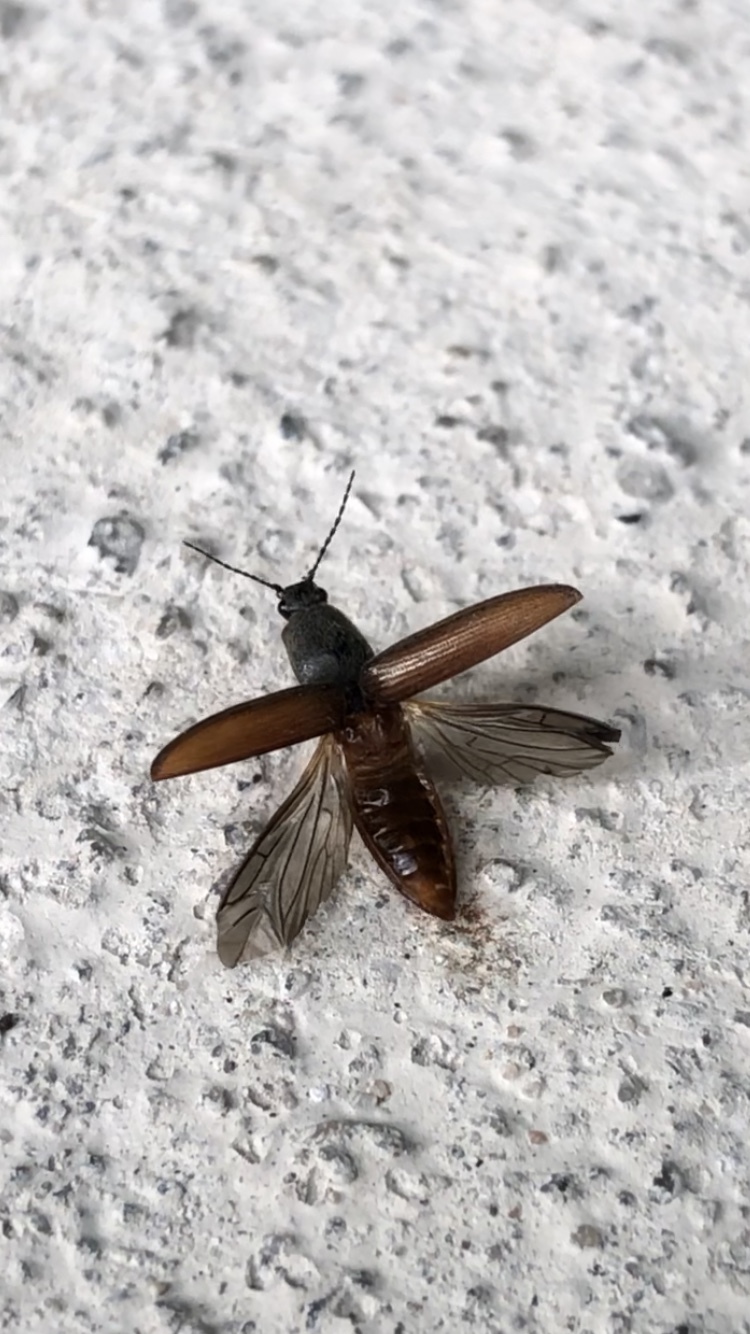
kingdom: Animalia
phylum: Arthropoda
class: Insecta
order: Coleoptera
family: Elateridae
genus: Athous
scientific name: Athous haemorrhoidalis
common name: Red-brown click beetle
